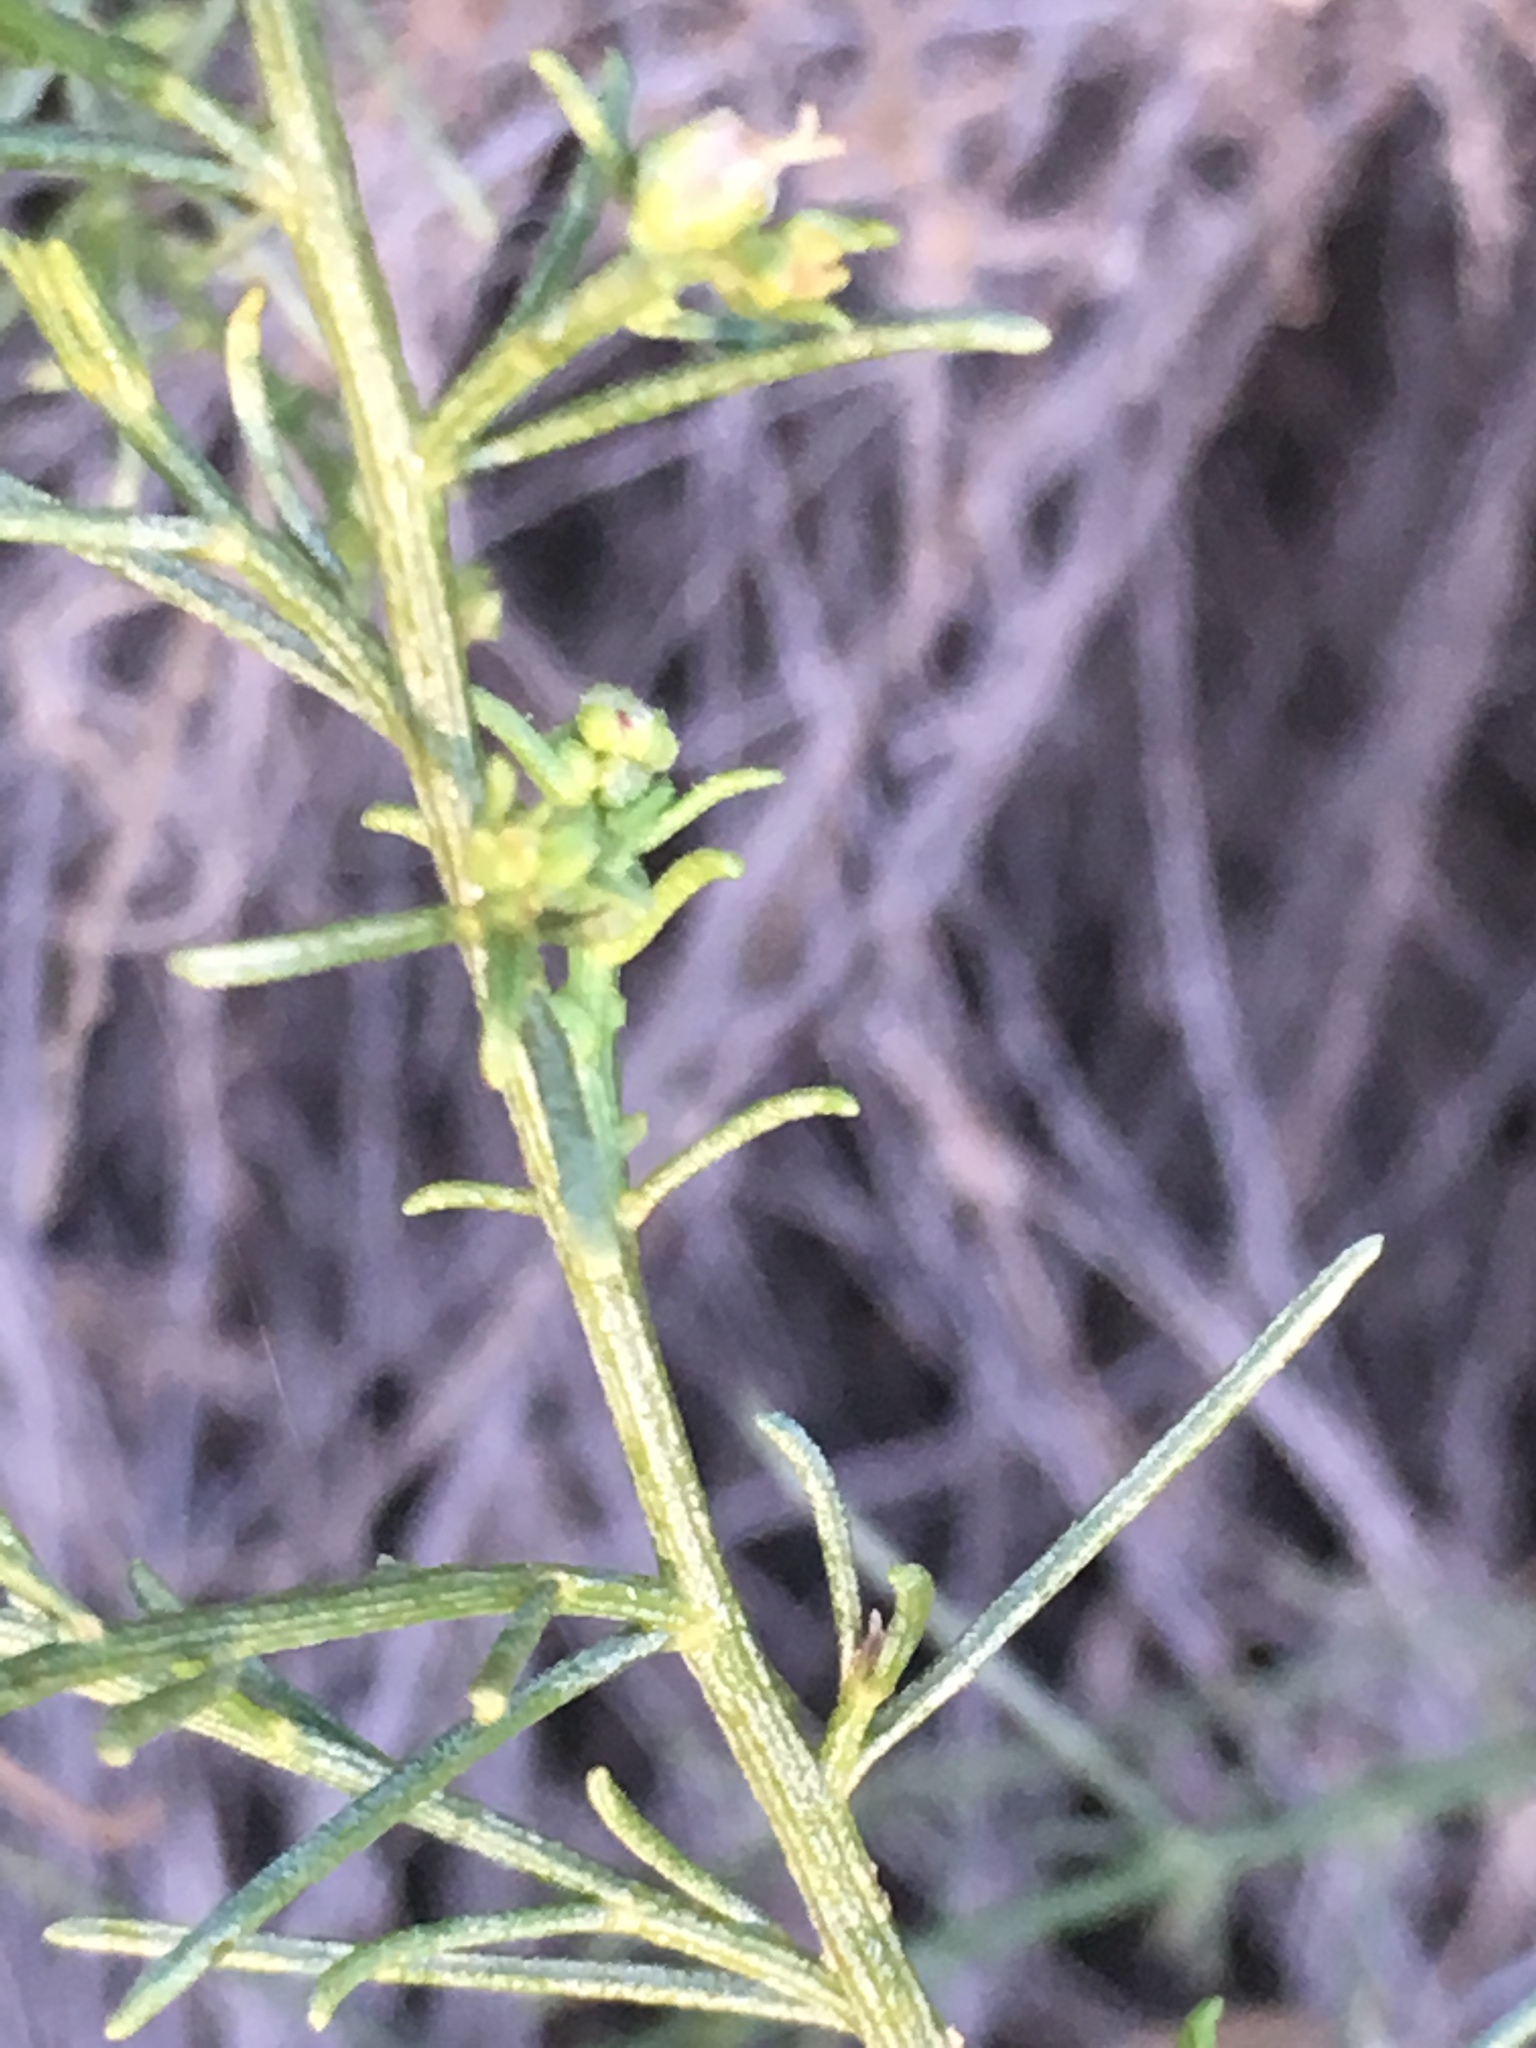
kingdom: Plantae
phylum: Tracheophyta
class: Magnoliopsida
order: Asterales
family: Asteraceae
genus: Ambrosia
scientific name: Ambrosia salsola
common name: Burrobrush
